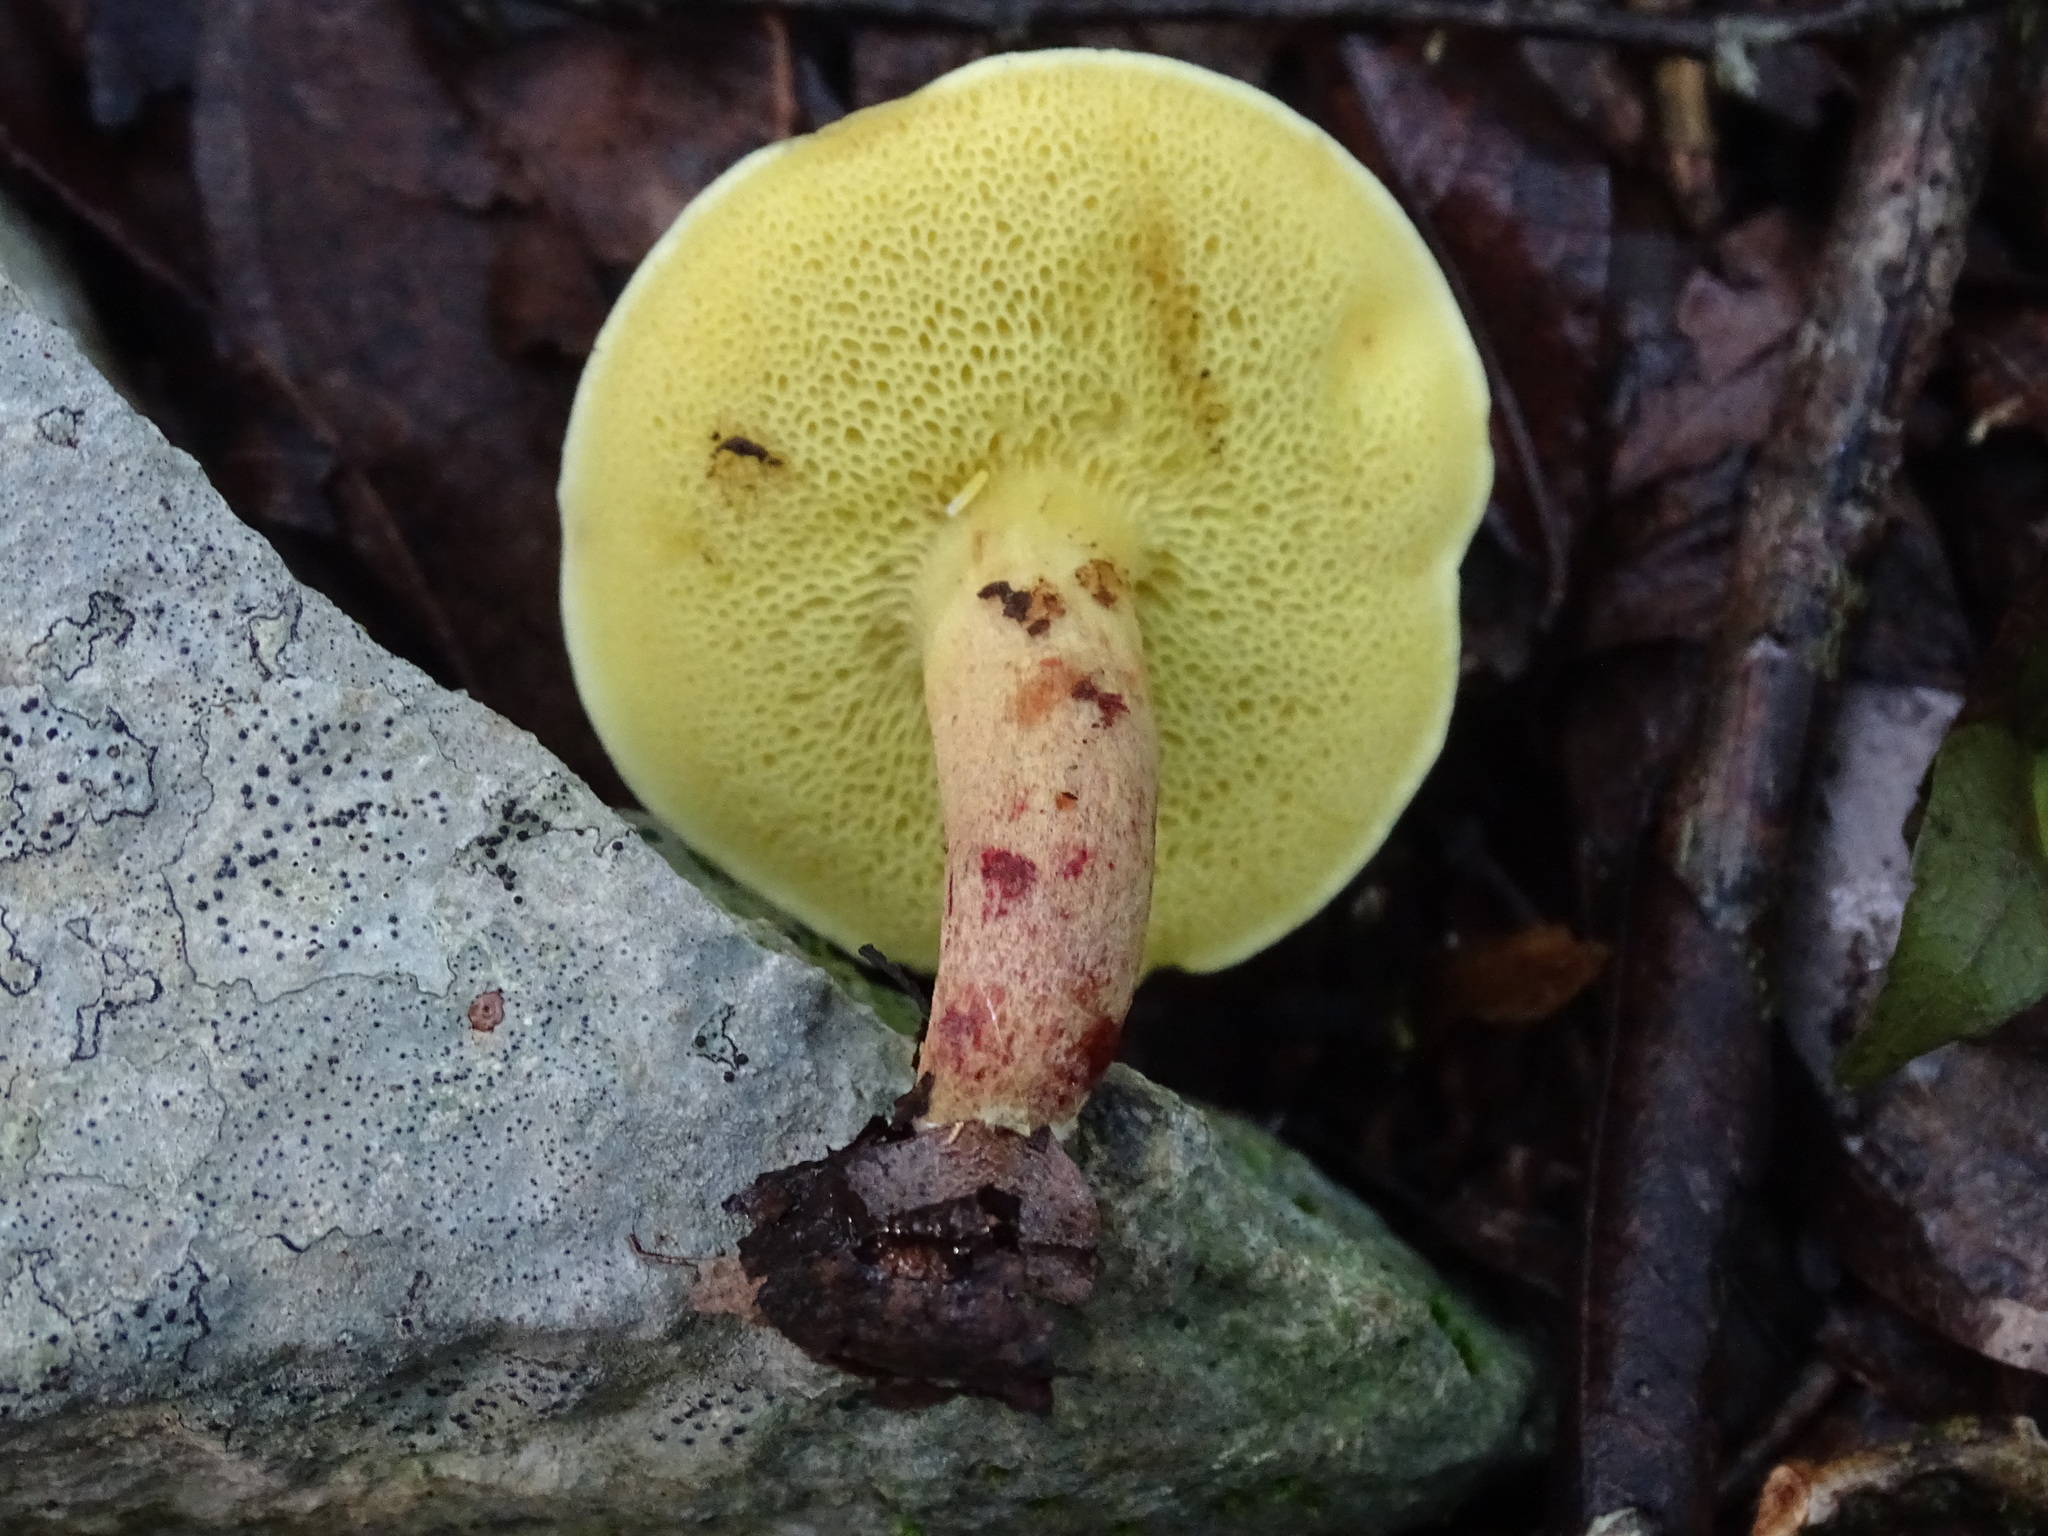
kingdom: Fungi
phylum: Basidiomycota
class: Agaricomycetes
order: Boletales
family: Boletaceae
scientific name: Boletaceae
